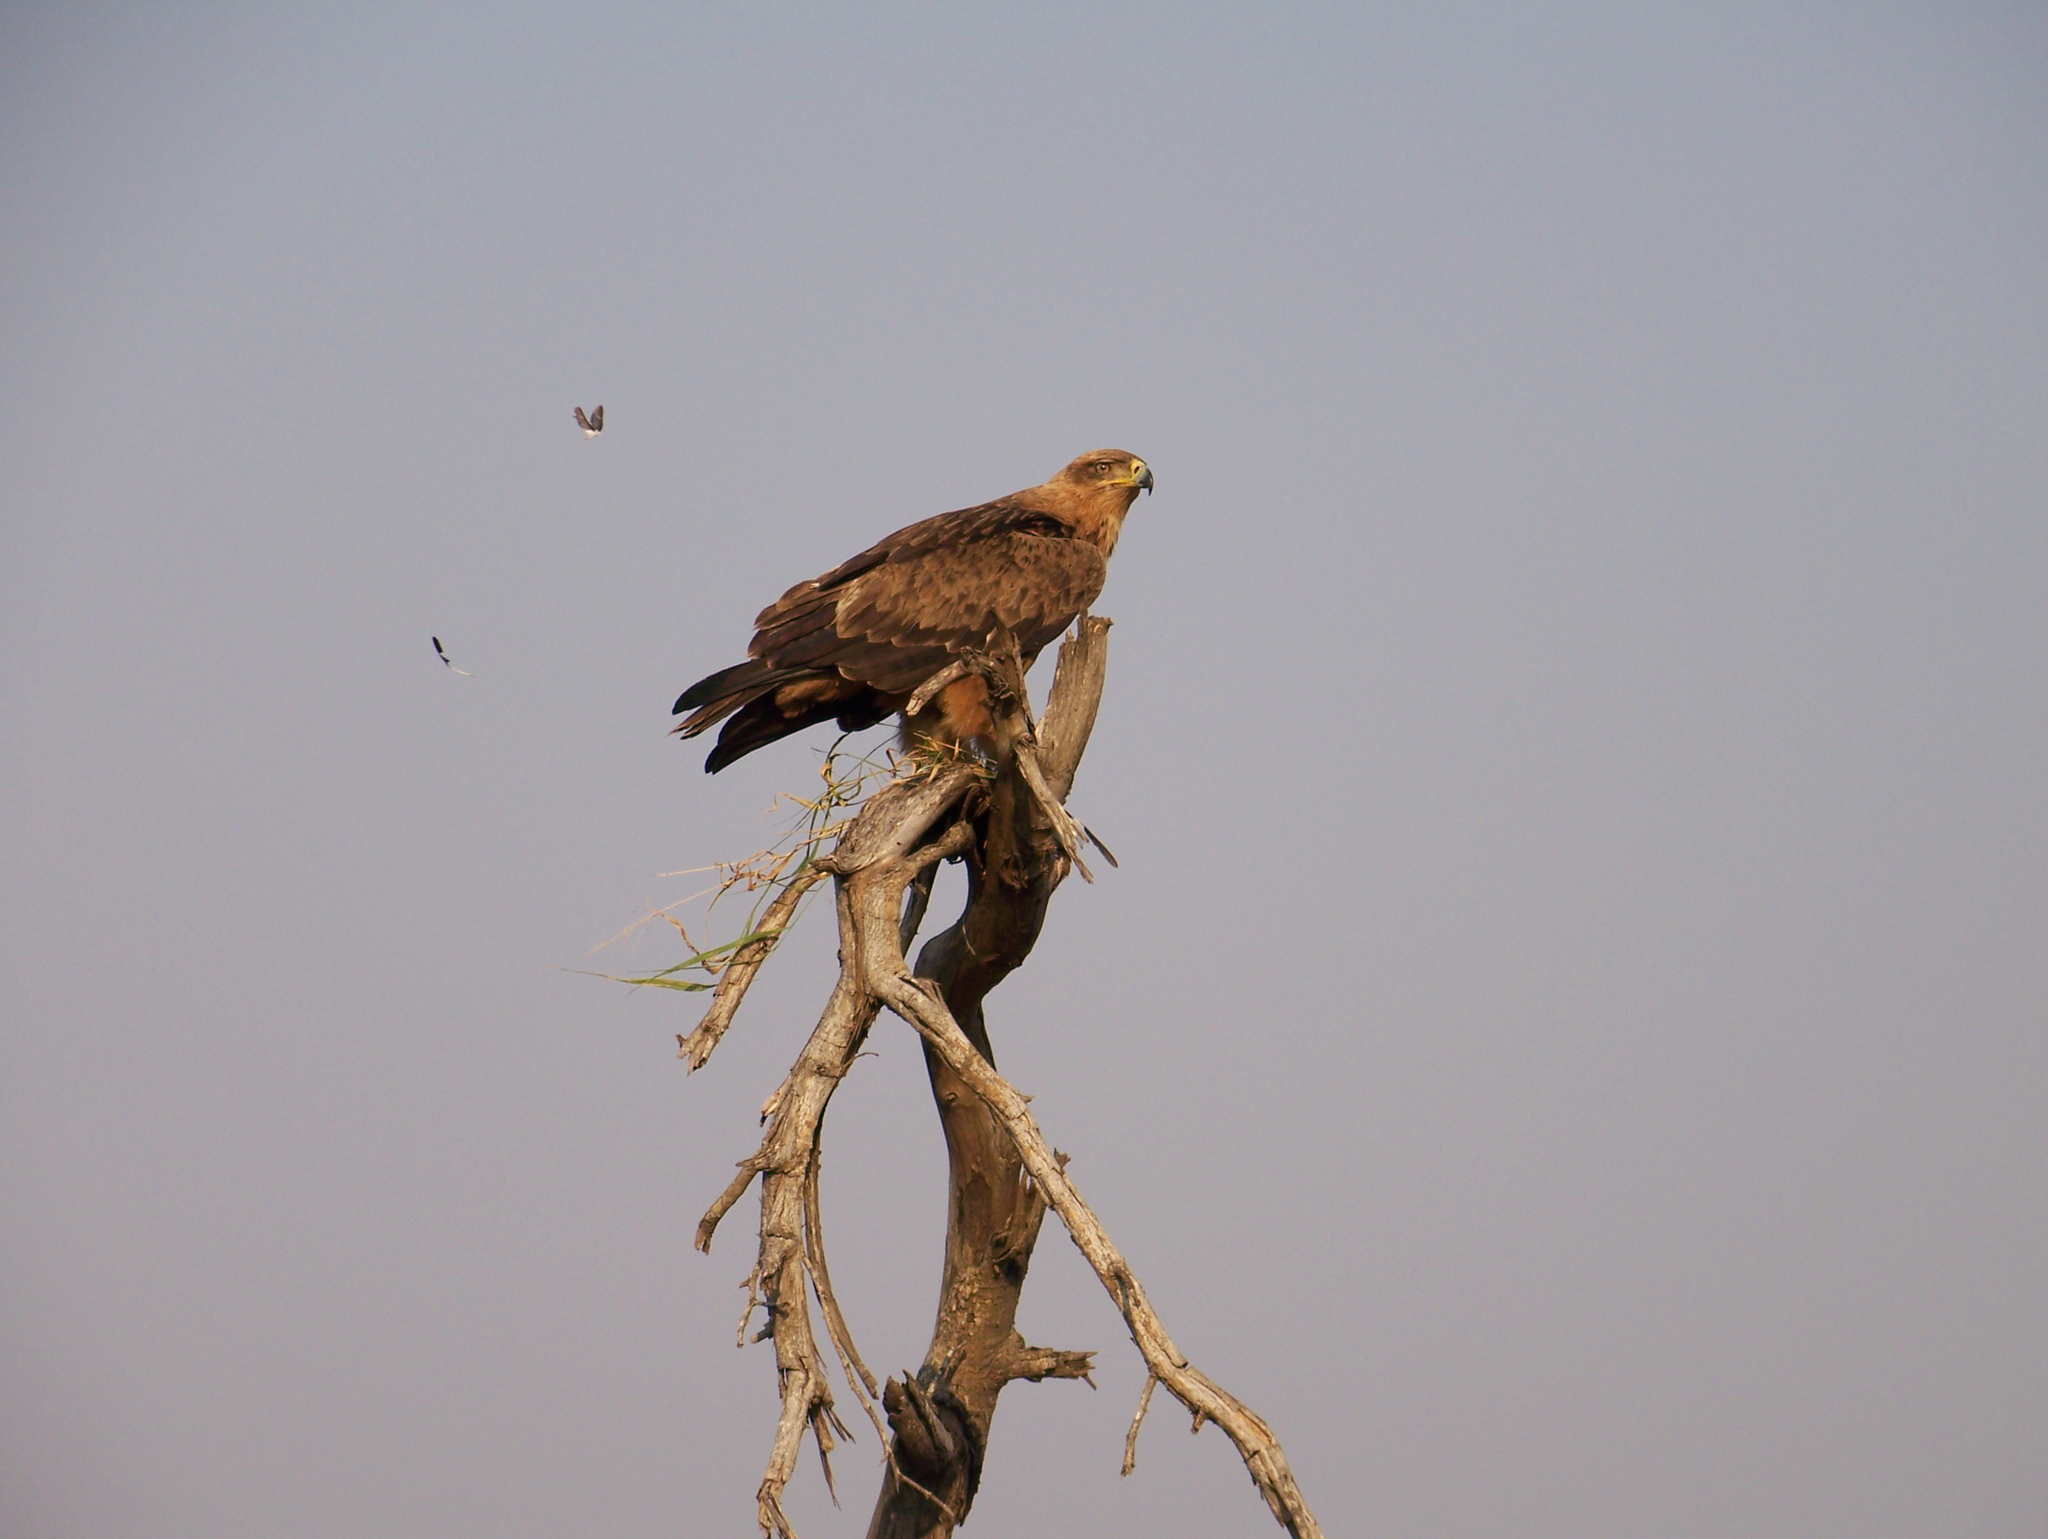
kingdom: Animalia
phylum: Chordata
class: Aves
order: Accipitriformes
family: Accipitridae
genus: Aquila
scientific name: Aquila rapax
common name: Tawny eagle
